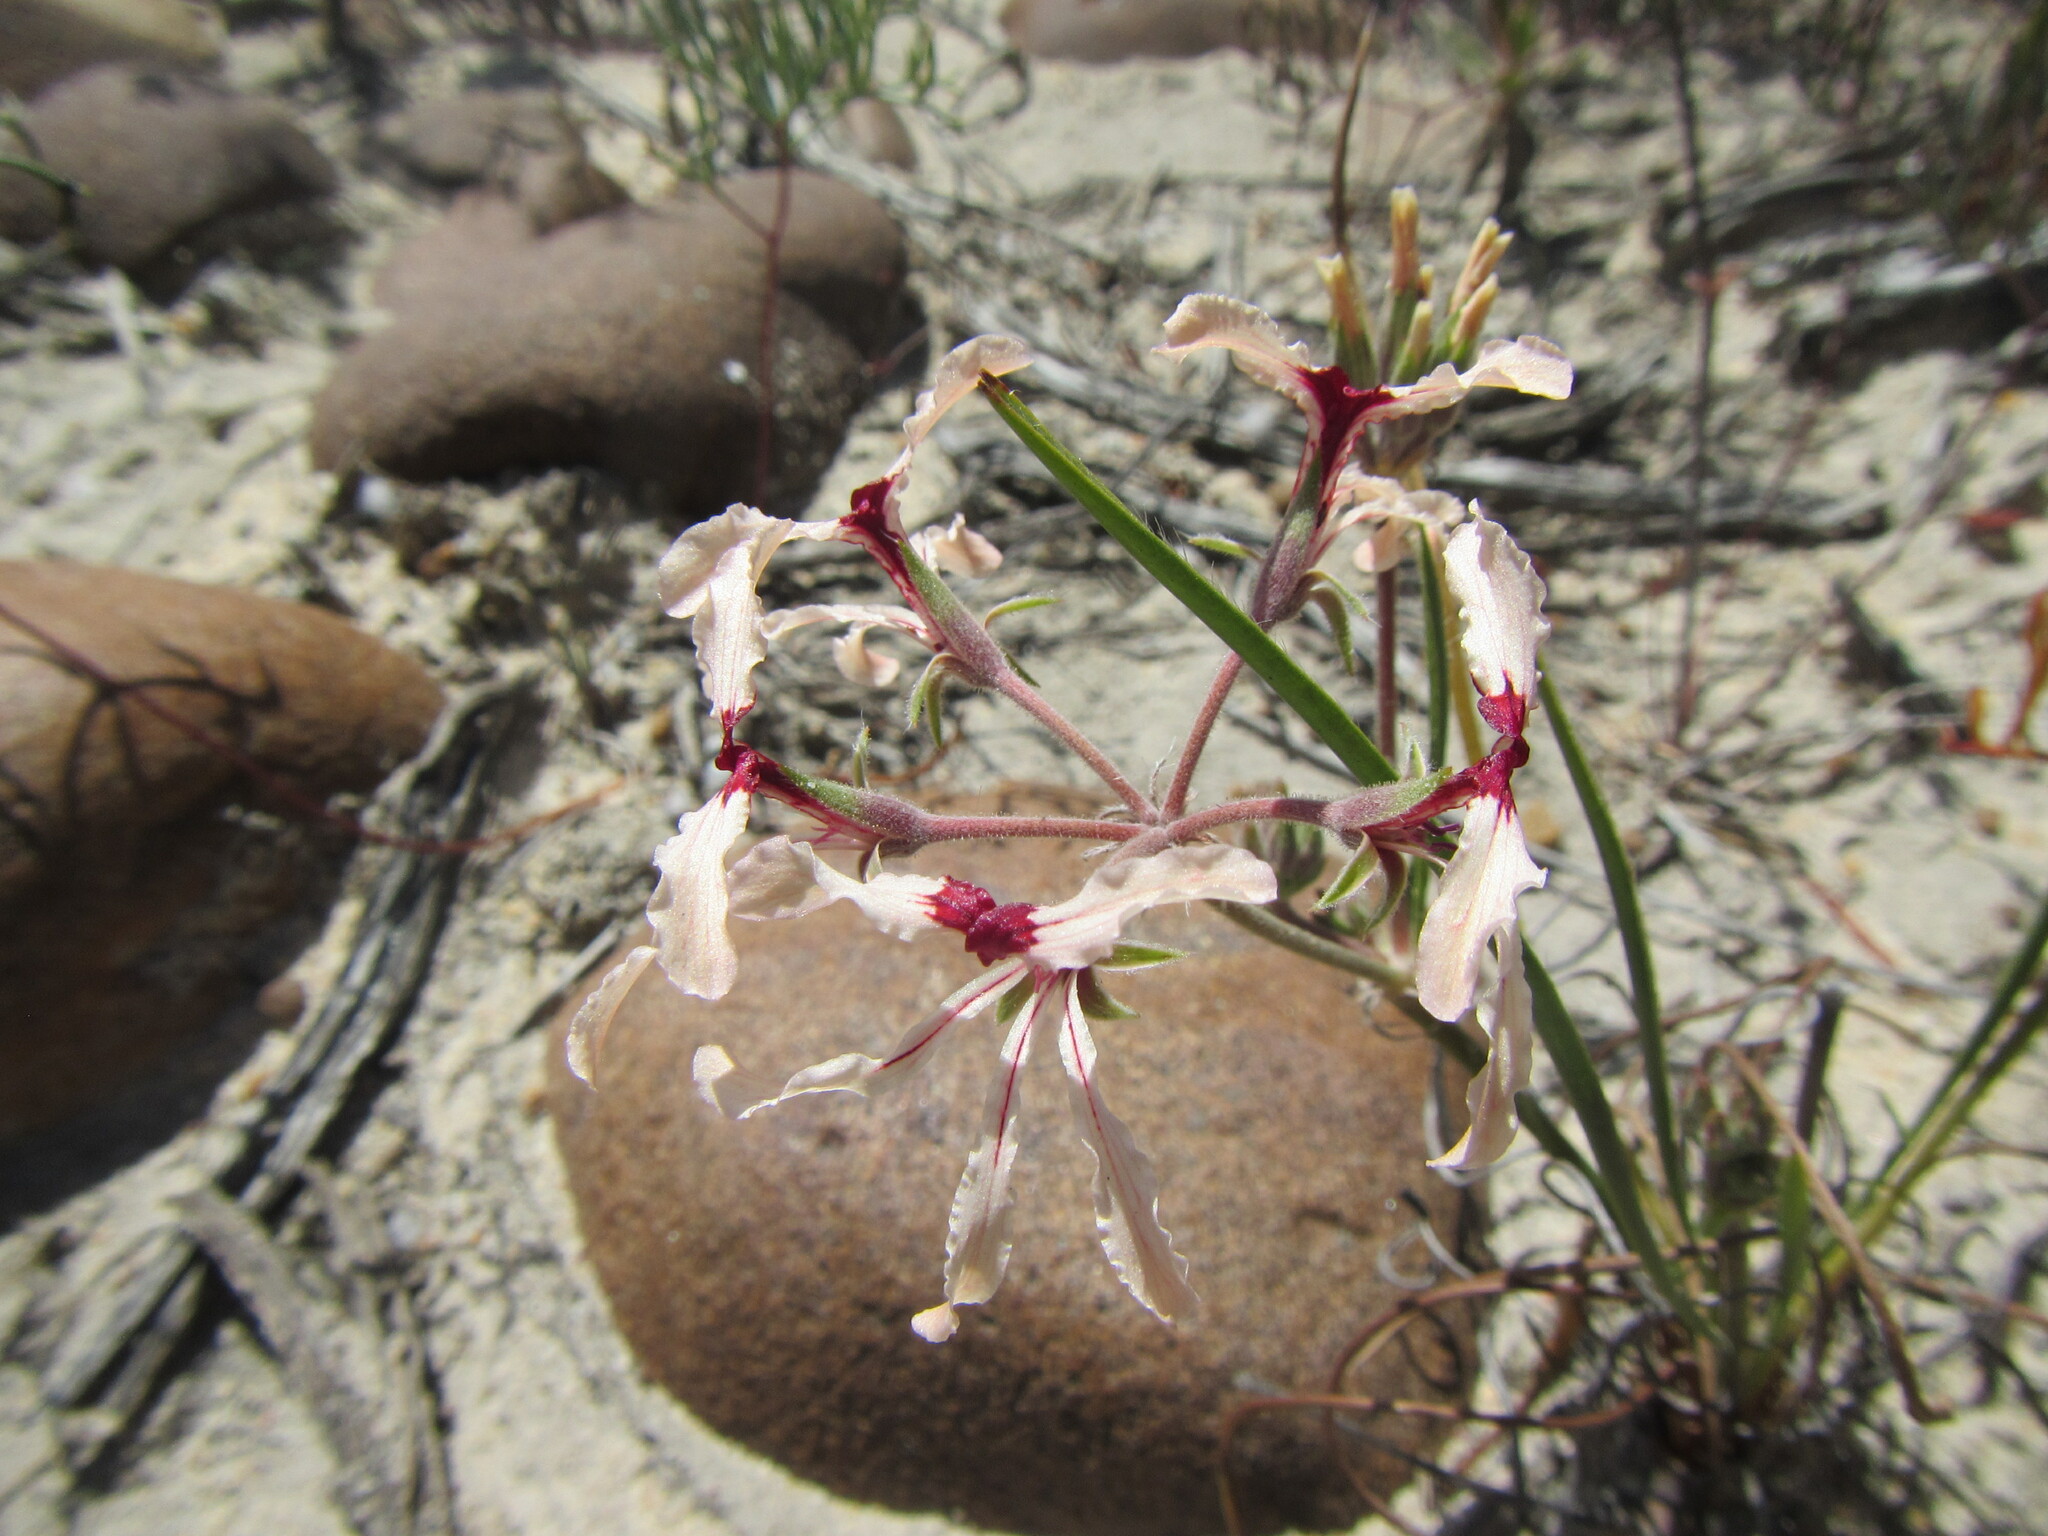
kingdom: Plantae
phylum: Tracheophyta
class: Magnoliopsida
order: Geraniales
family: Geraniaceae
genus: Pelargonium
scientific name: Pelargonium longifolium
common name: Bearded pelargonium
